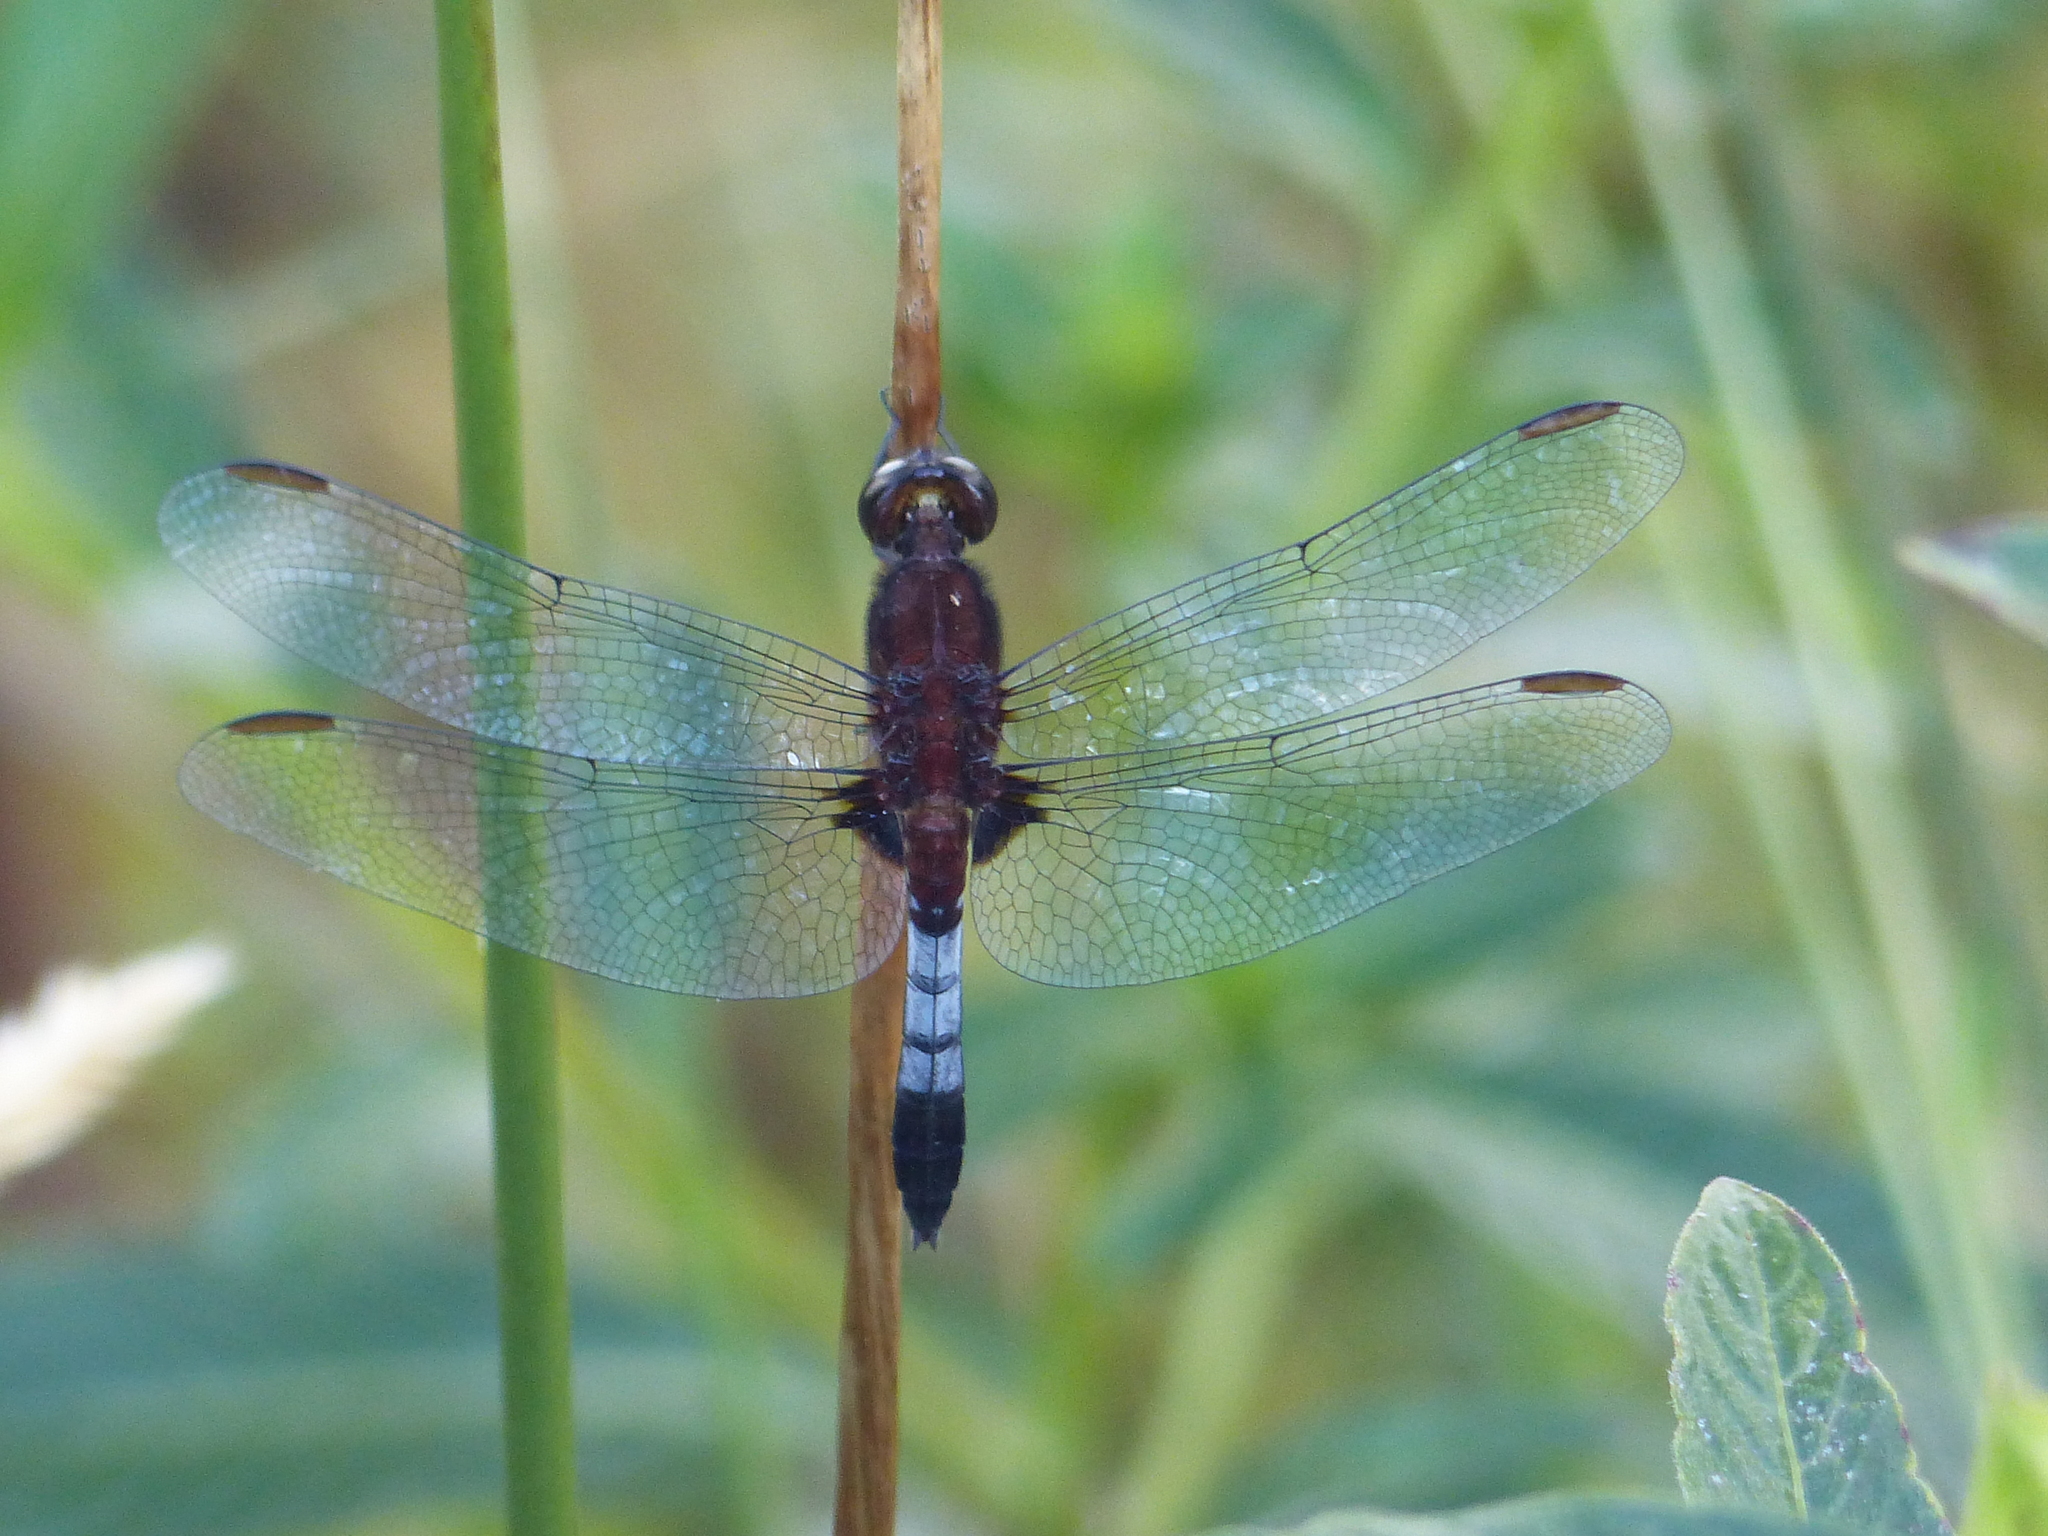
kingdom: Animalia
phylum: Arthropoda
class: Insecta
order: Odonata
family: Libellulidae
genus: Erythrodiplax
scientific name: Erythrodiplax melanorubra
